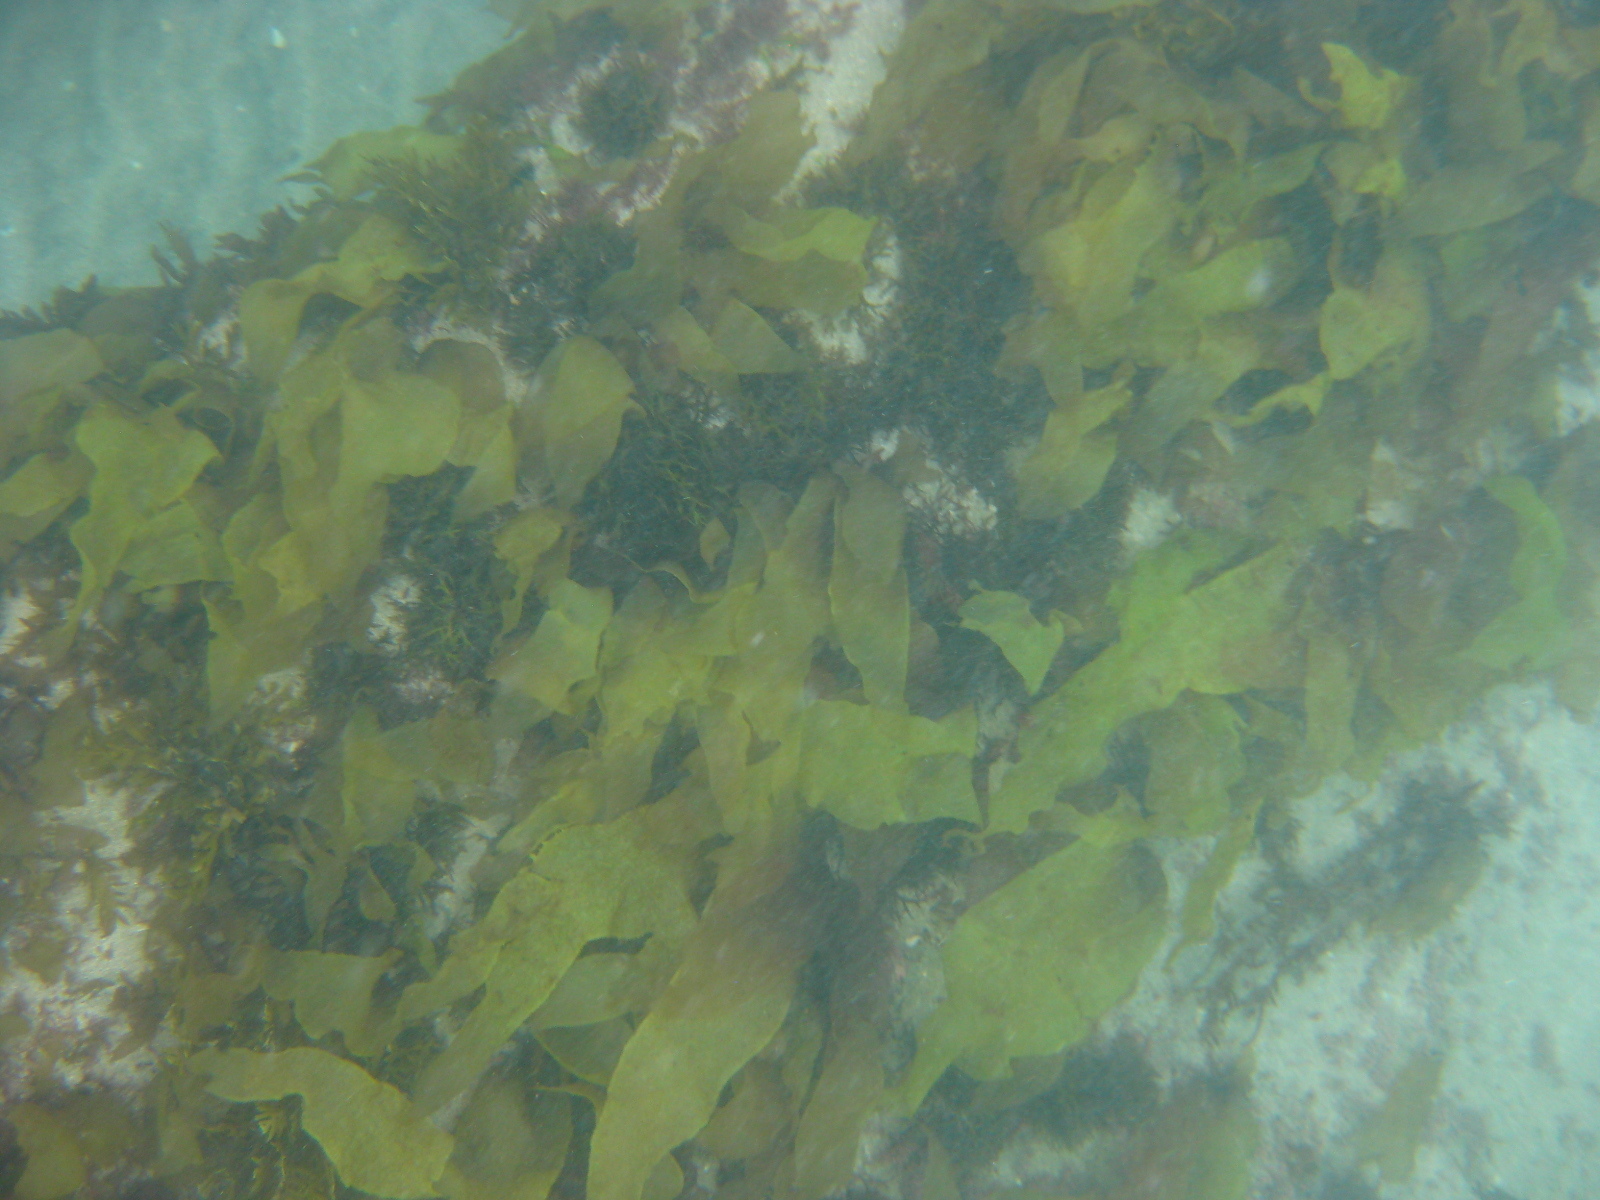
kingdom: Plantae
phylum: Rhodophyta
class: Florideophyceae
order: Halymeniales
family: Halymeniaceae
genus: Aeodes
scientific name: Aeodes nitidissima
